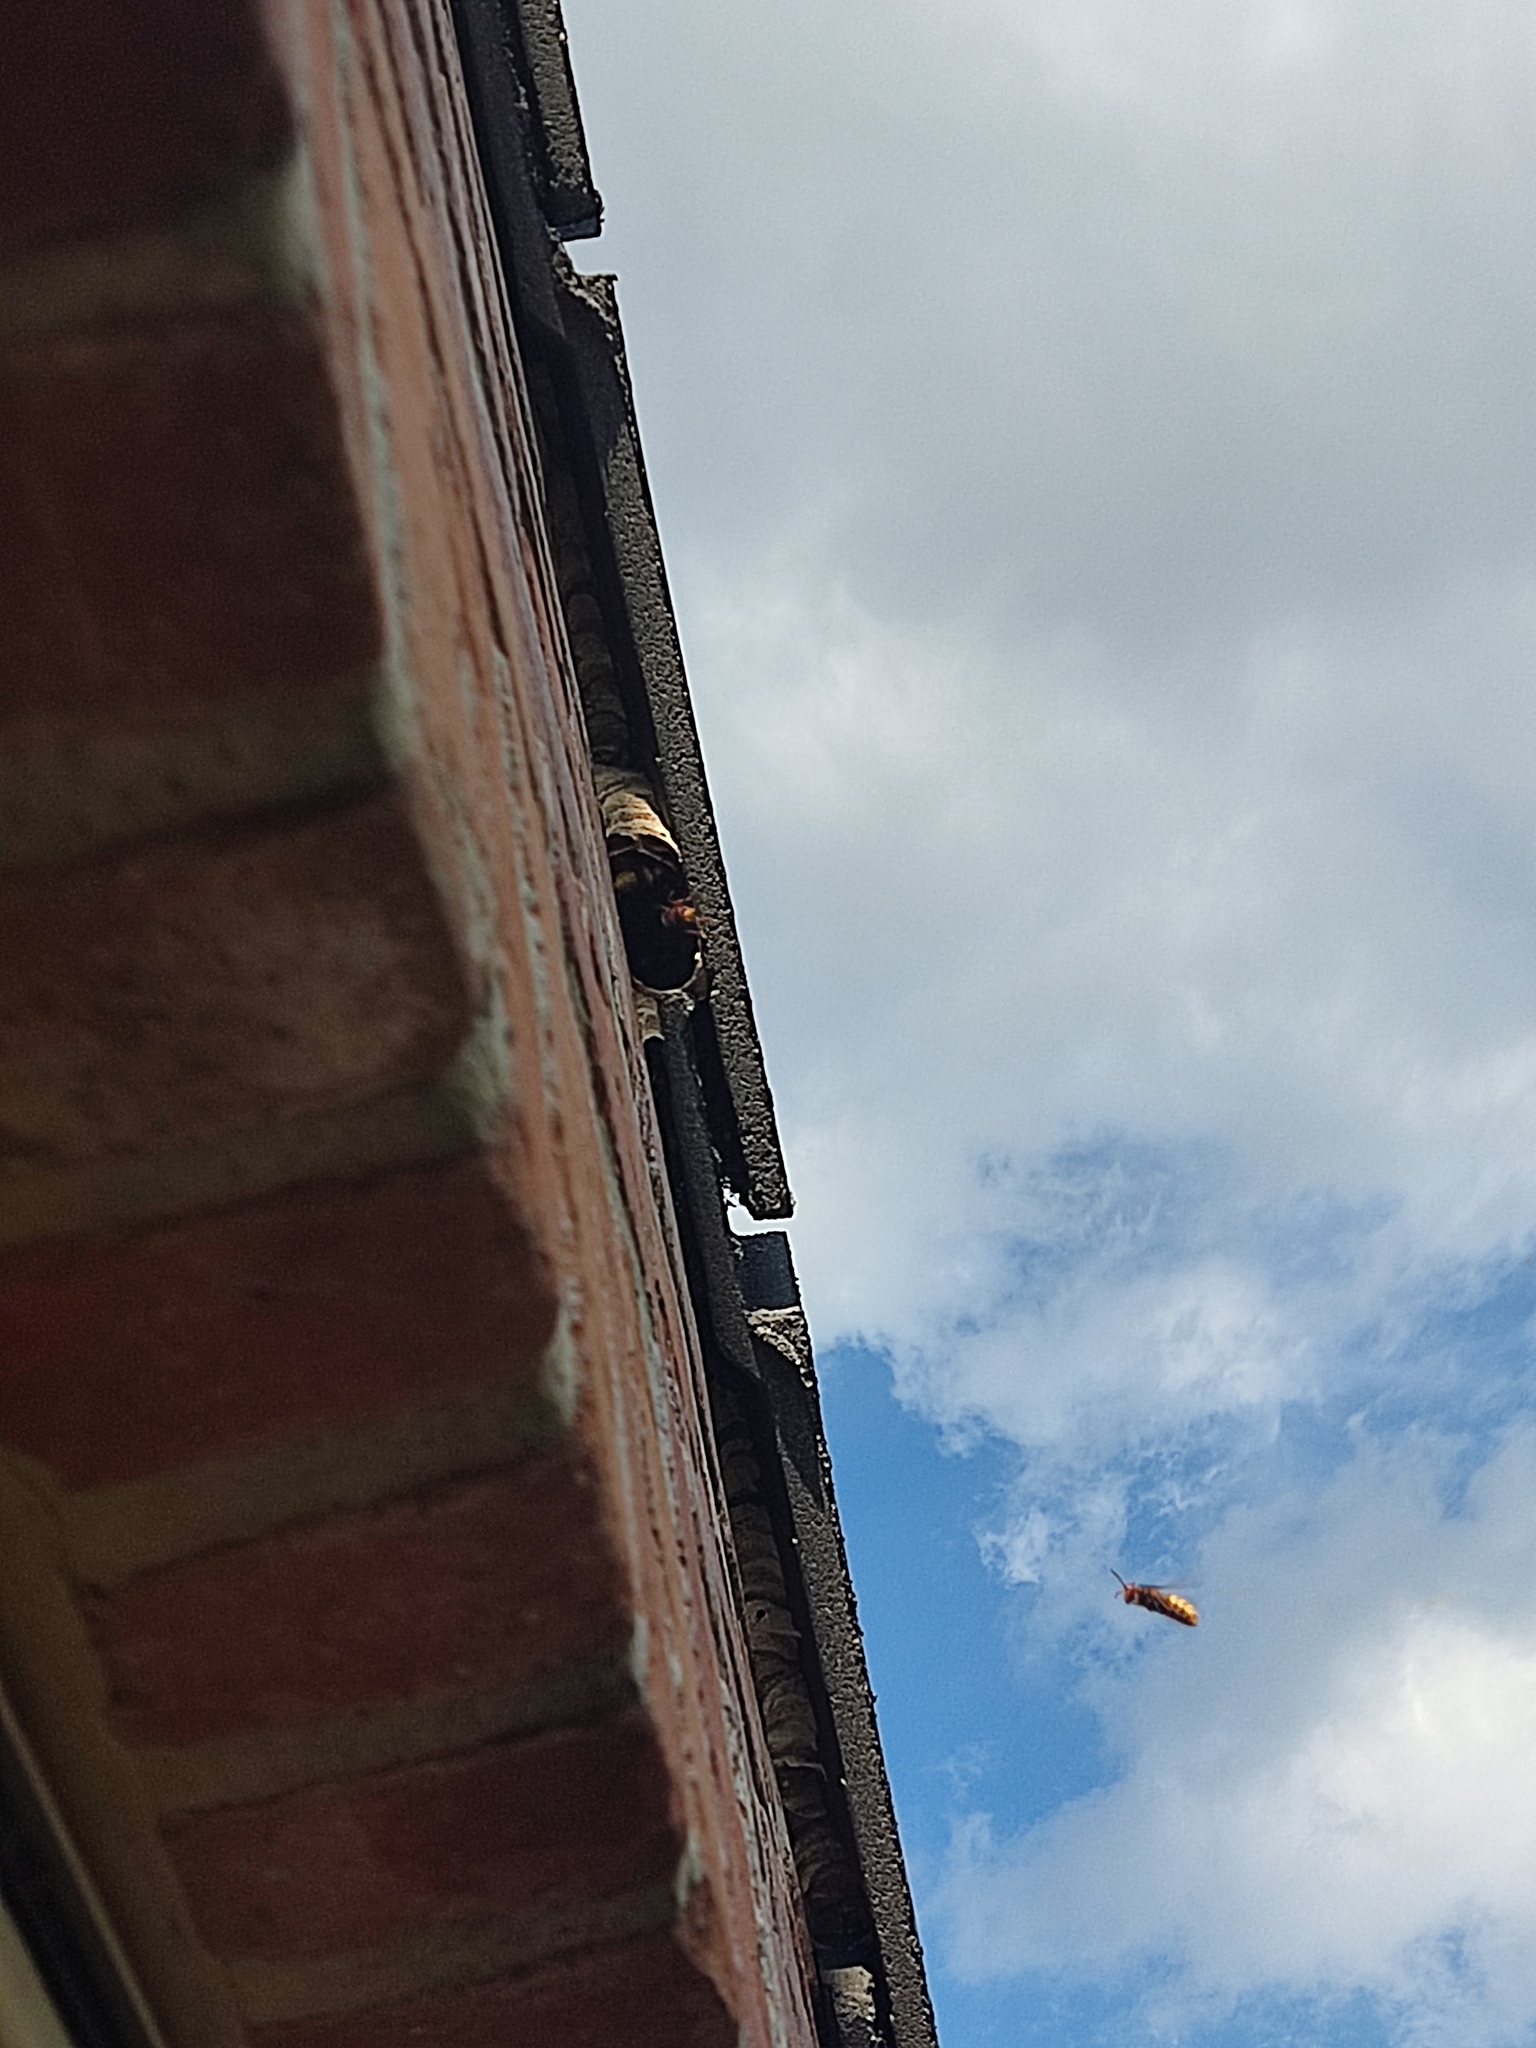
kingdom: Animalia
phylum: Arthropoda
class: Insecta
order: Hymenoptera
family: Vespidae
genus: Vespa
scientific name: Vespa crabro
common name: Hornet
